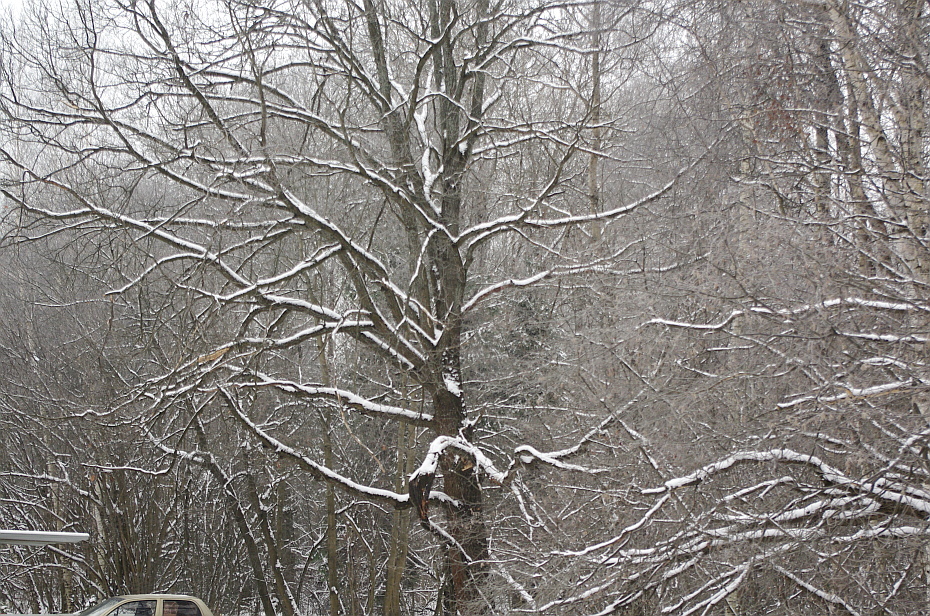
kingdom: Plantae
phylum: Tracheophyta
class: Magnoliopsida
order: Fagales
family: Fagaceae
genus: Quercus
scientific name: Quercus robur
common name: Pedunculate oak
